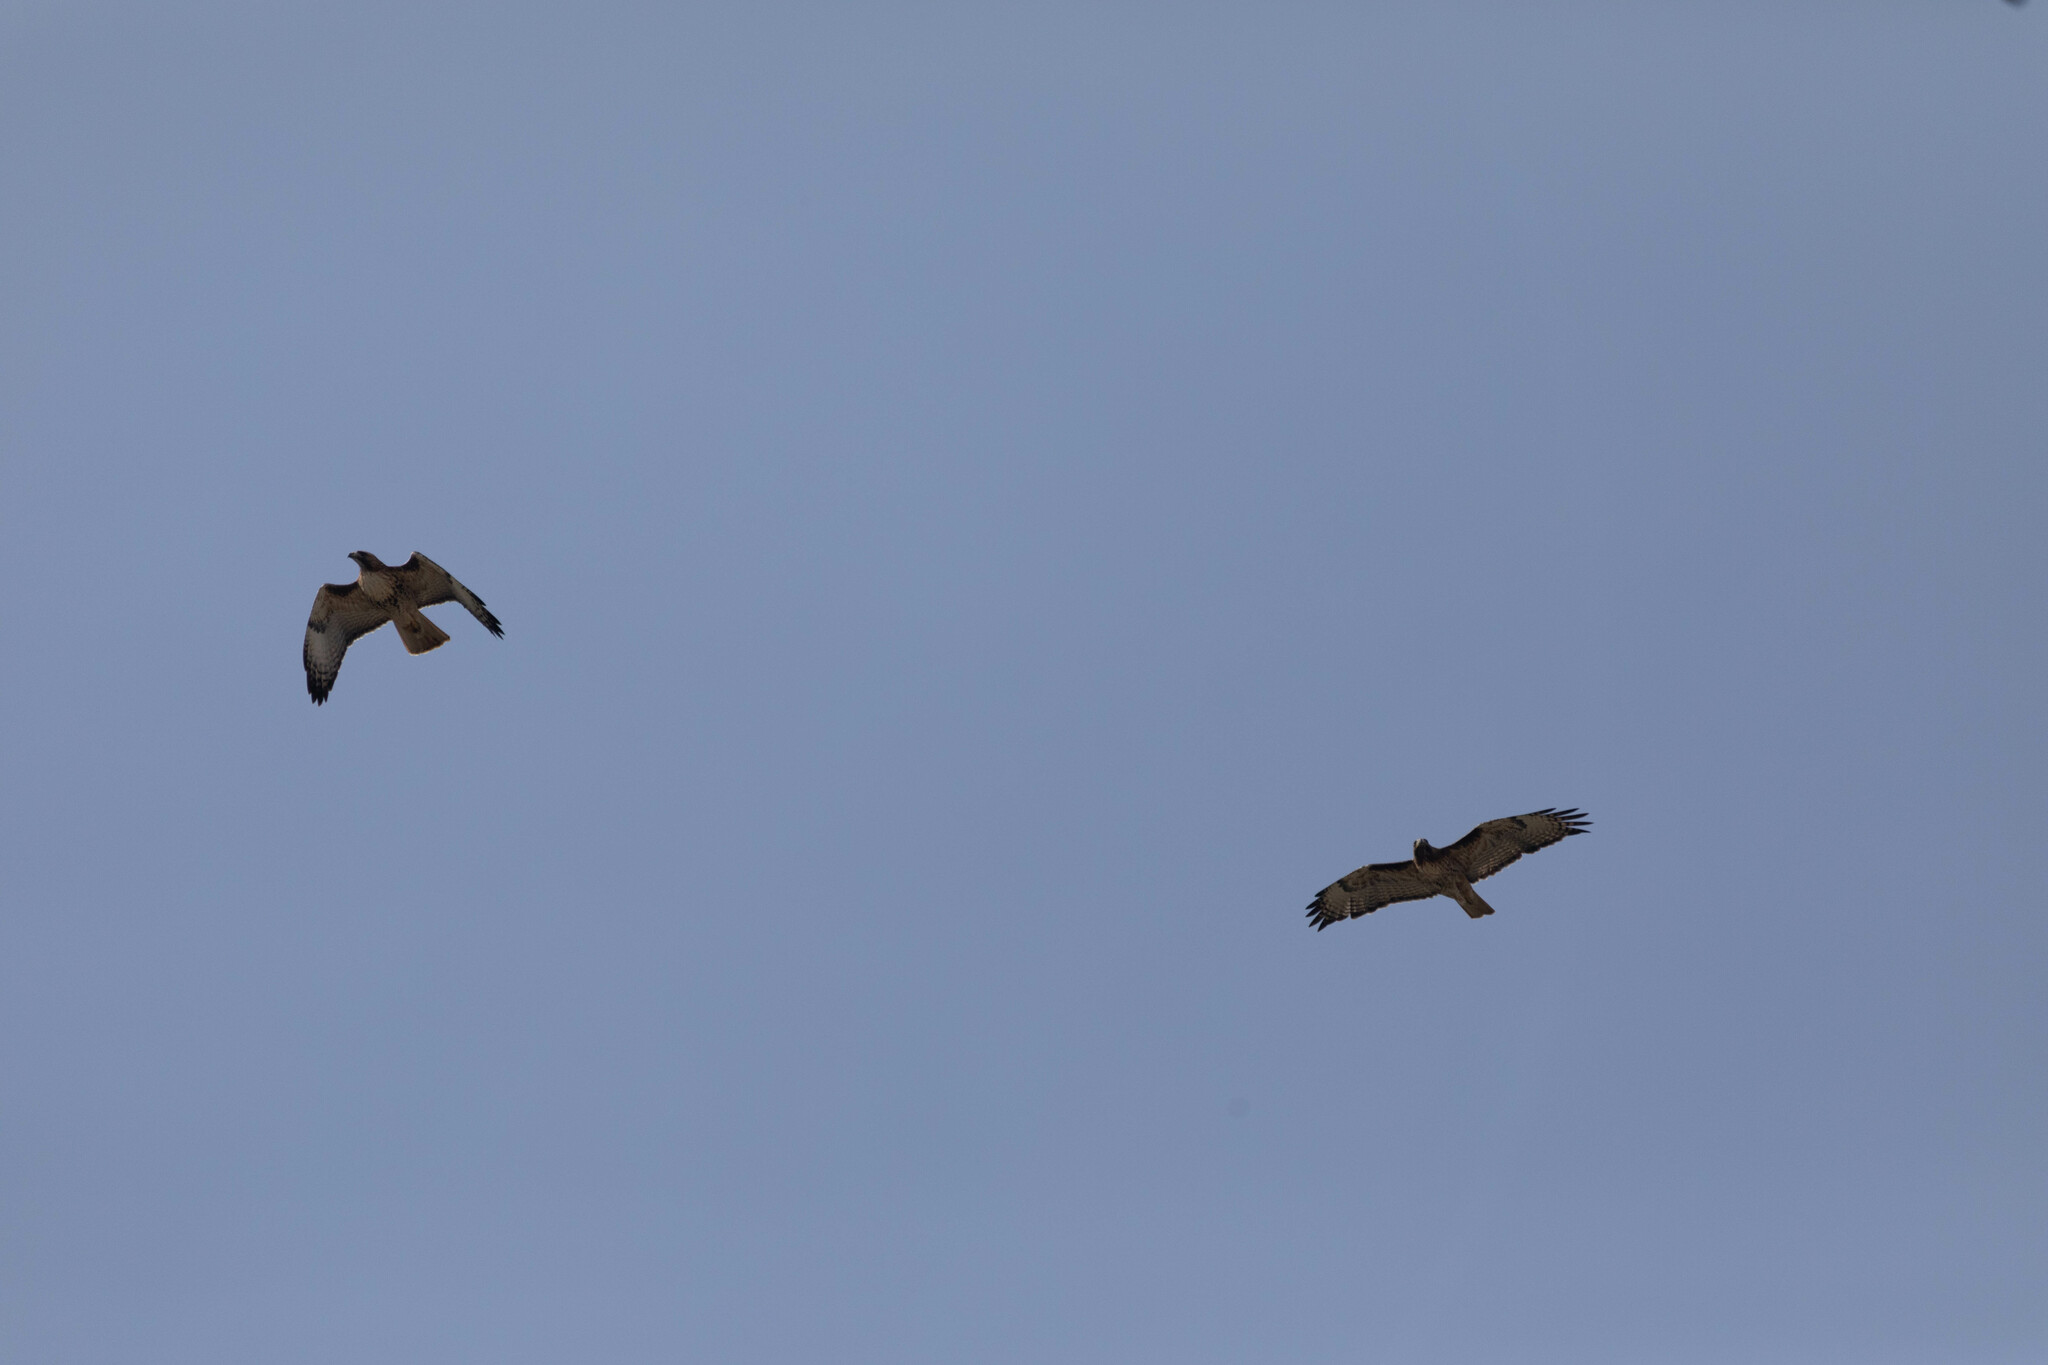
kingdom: Animalia
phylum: Chordata
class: Aves
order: Accipitriformes
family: Accipitridae
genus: Buteo
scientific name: Buteo jamaicensis
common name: Red-tailed hawk
